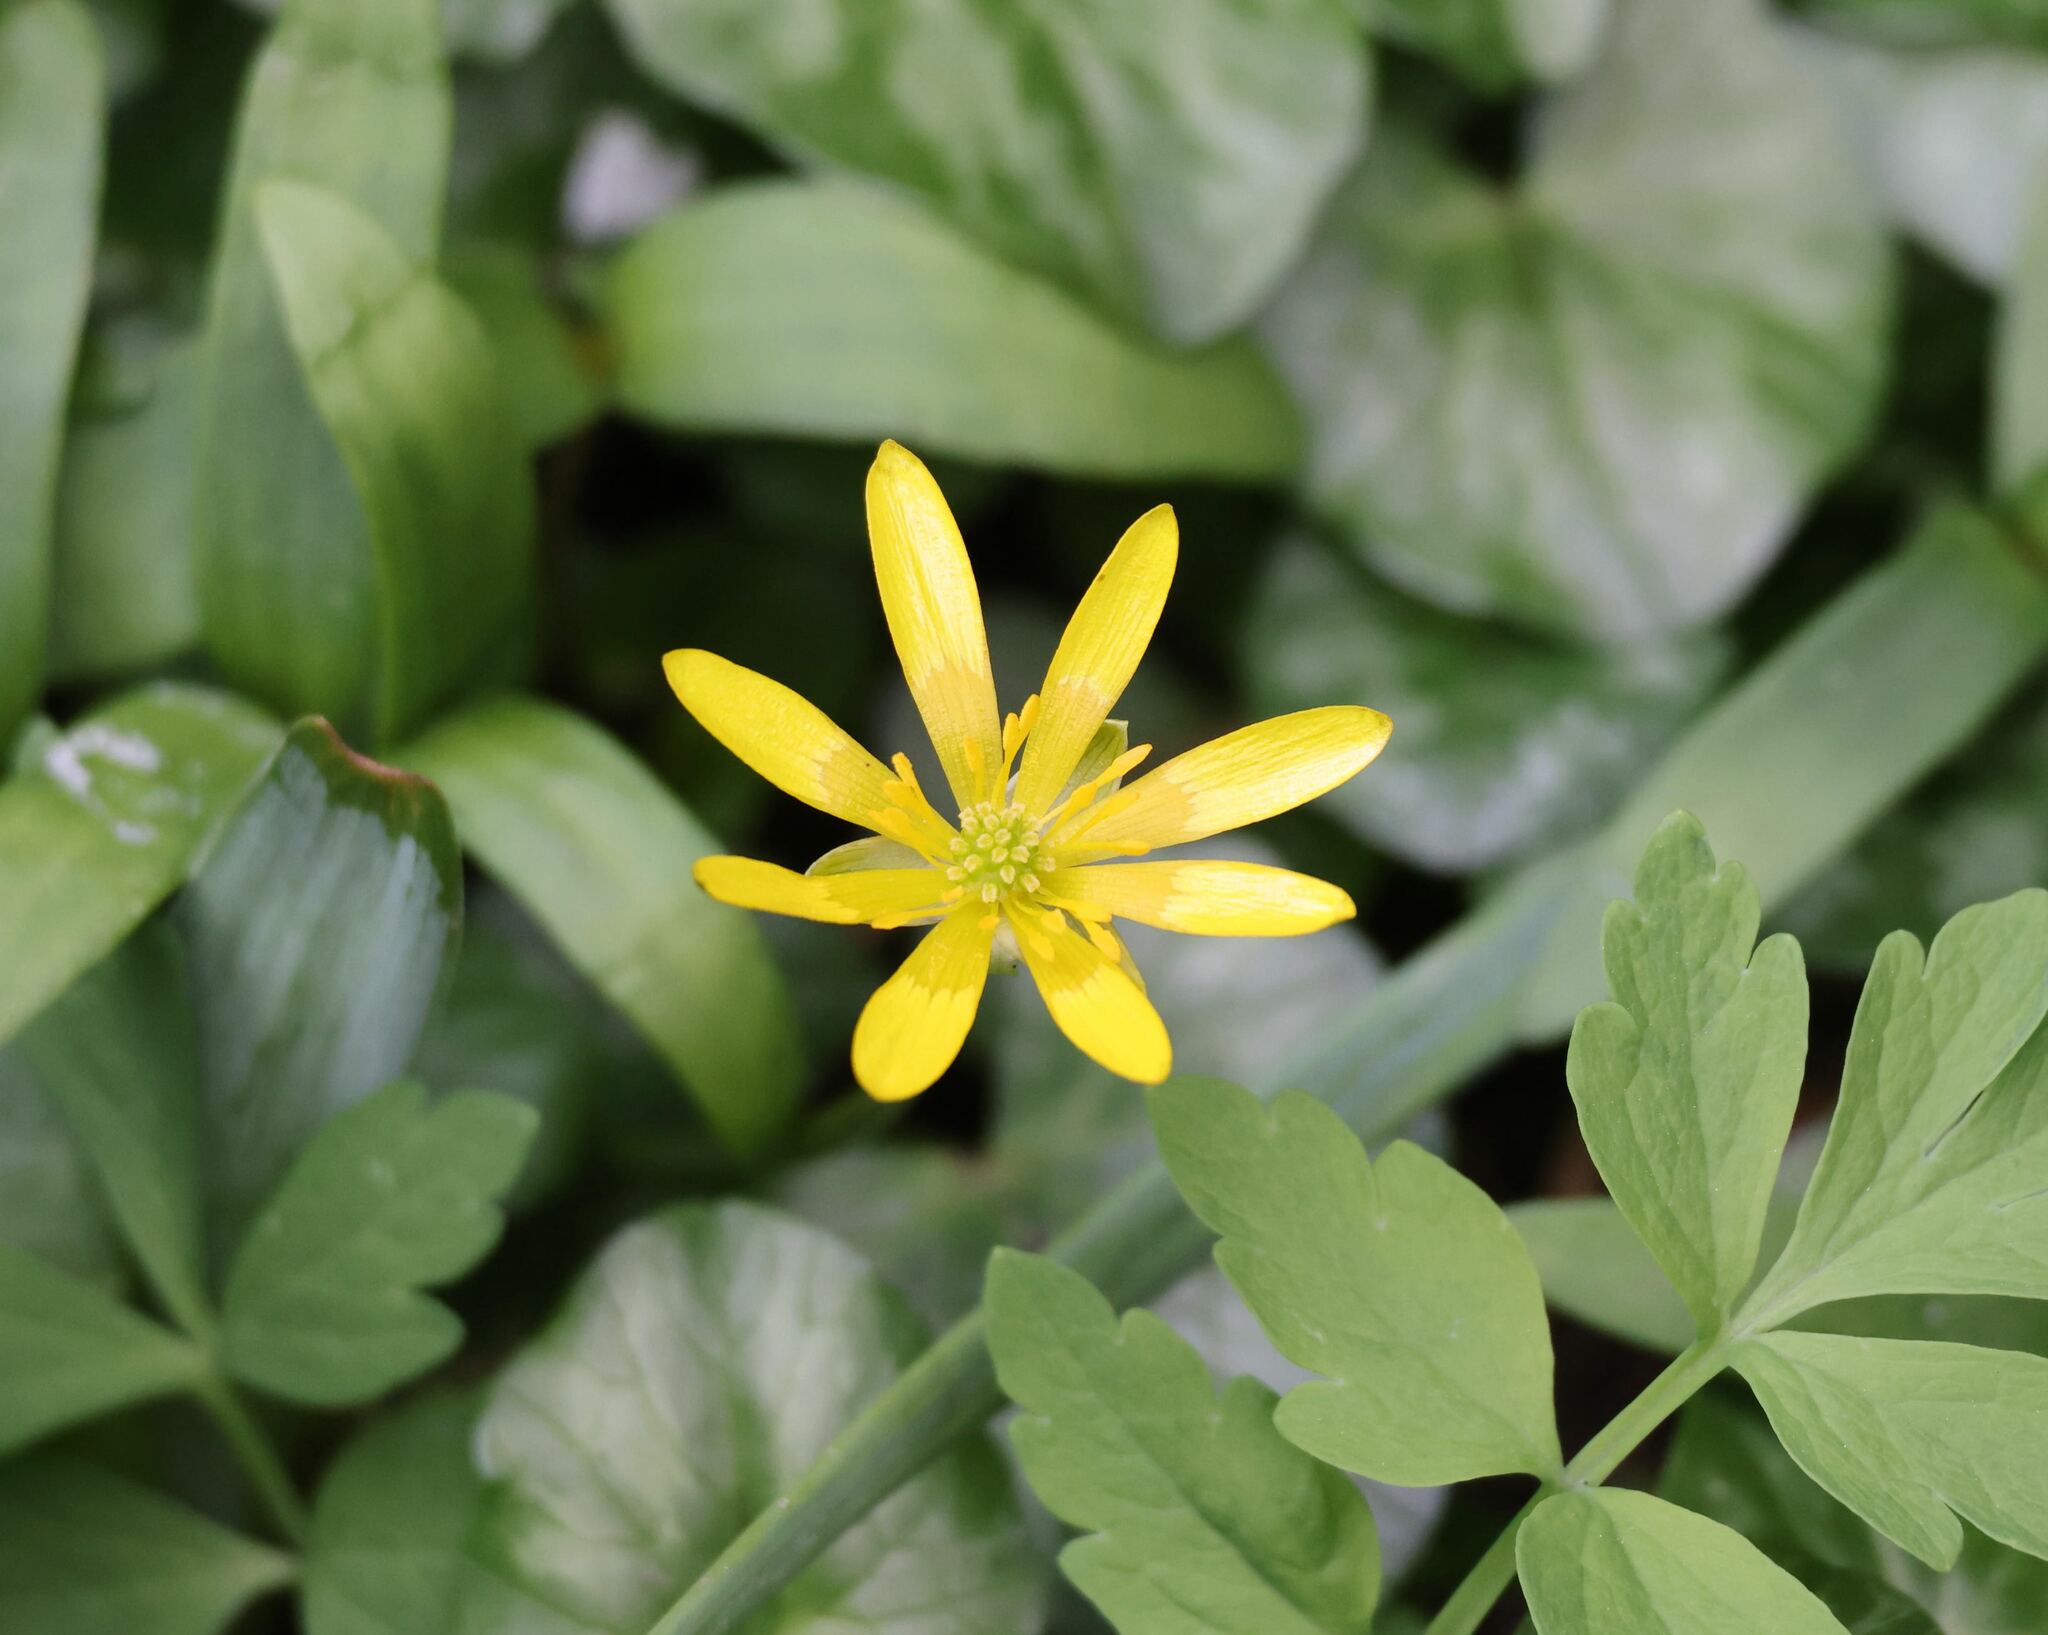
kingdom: Plantae
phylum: Tracheophyta
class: Magnoliopsida
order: Ranunculales
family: Ranunculaceae
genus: Ficaria
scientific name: Ficaria verna
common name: Lesser celandine
